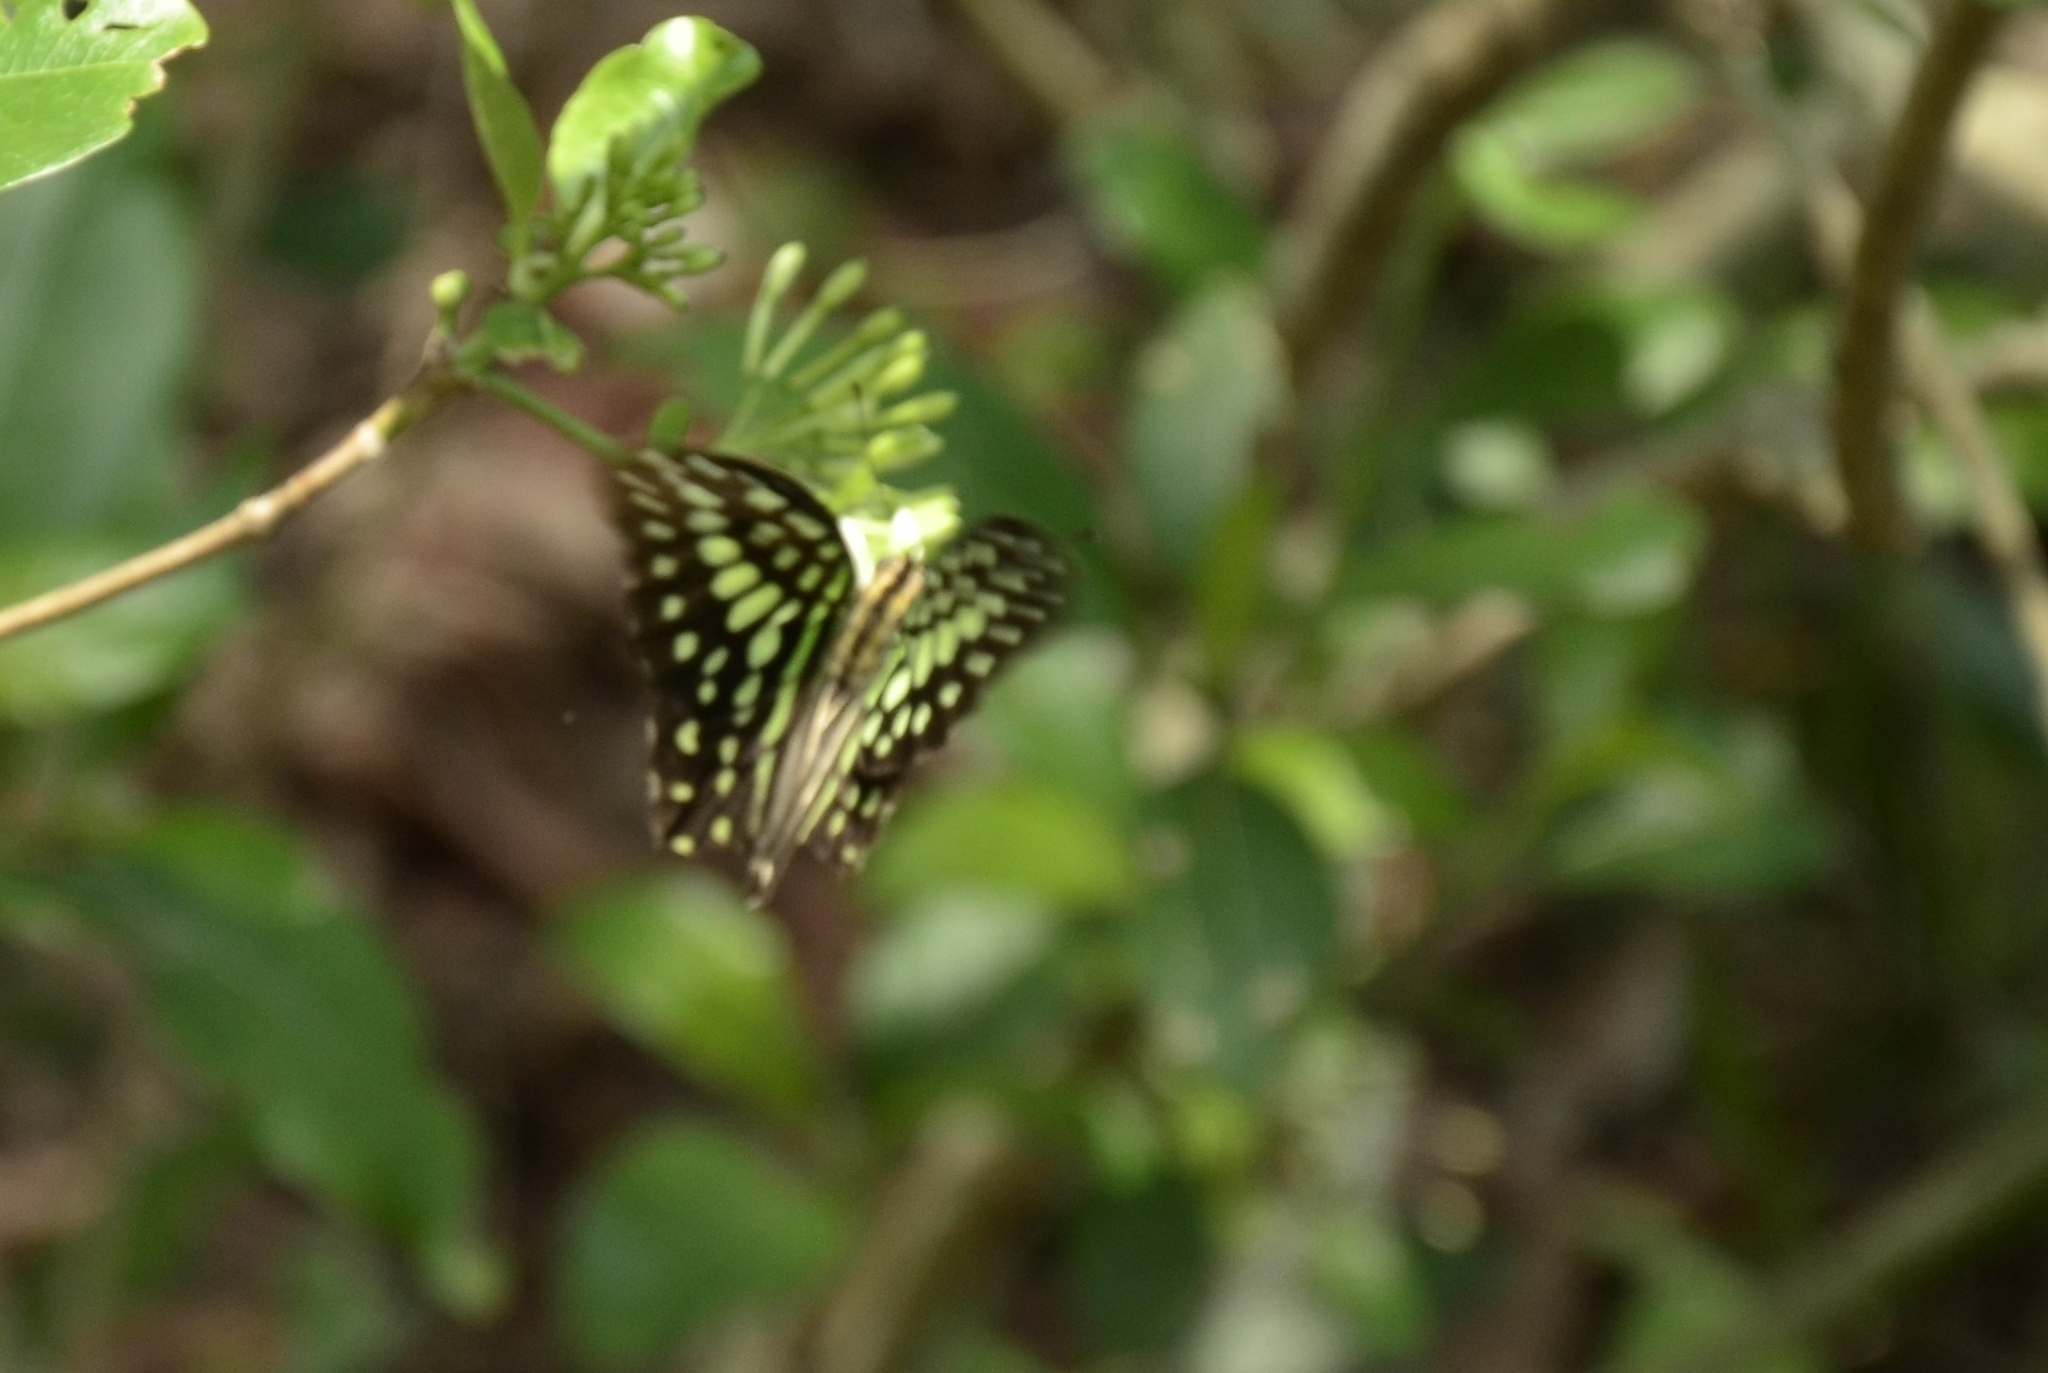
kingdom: Animalia
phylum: Arthropoda
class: Insecta
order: Lepidoptera
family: Papilionidae
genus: Graphium
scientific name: Graphium agamemnon
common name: Tailed jay
